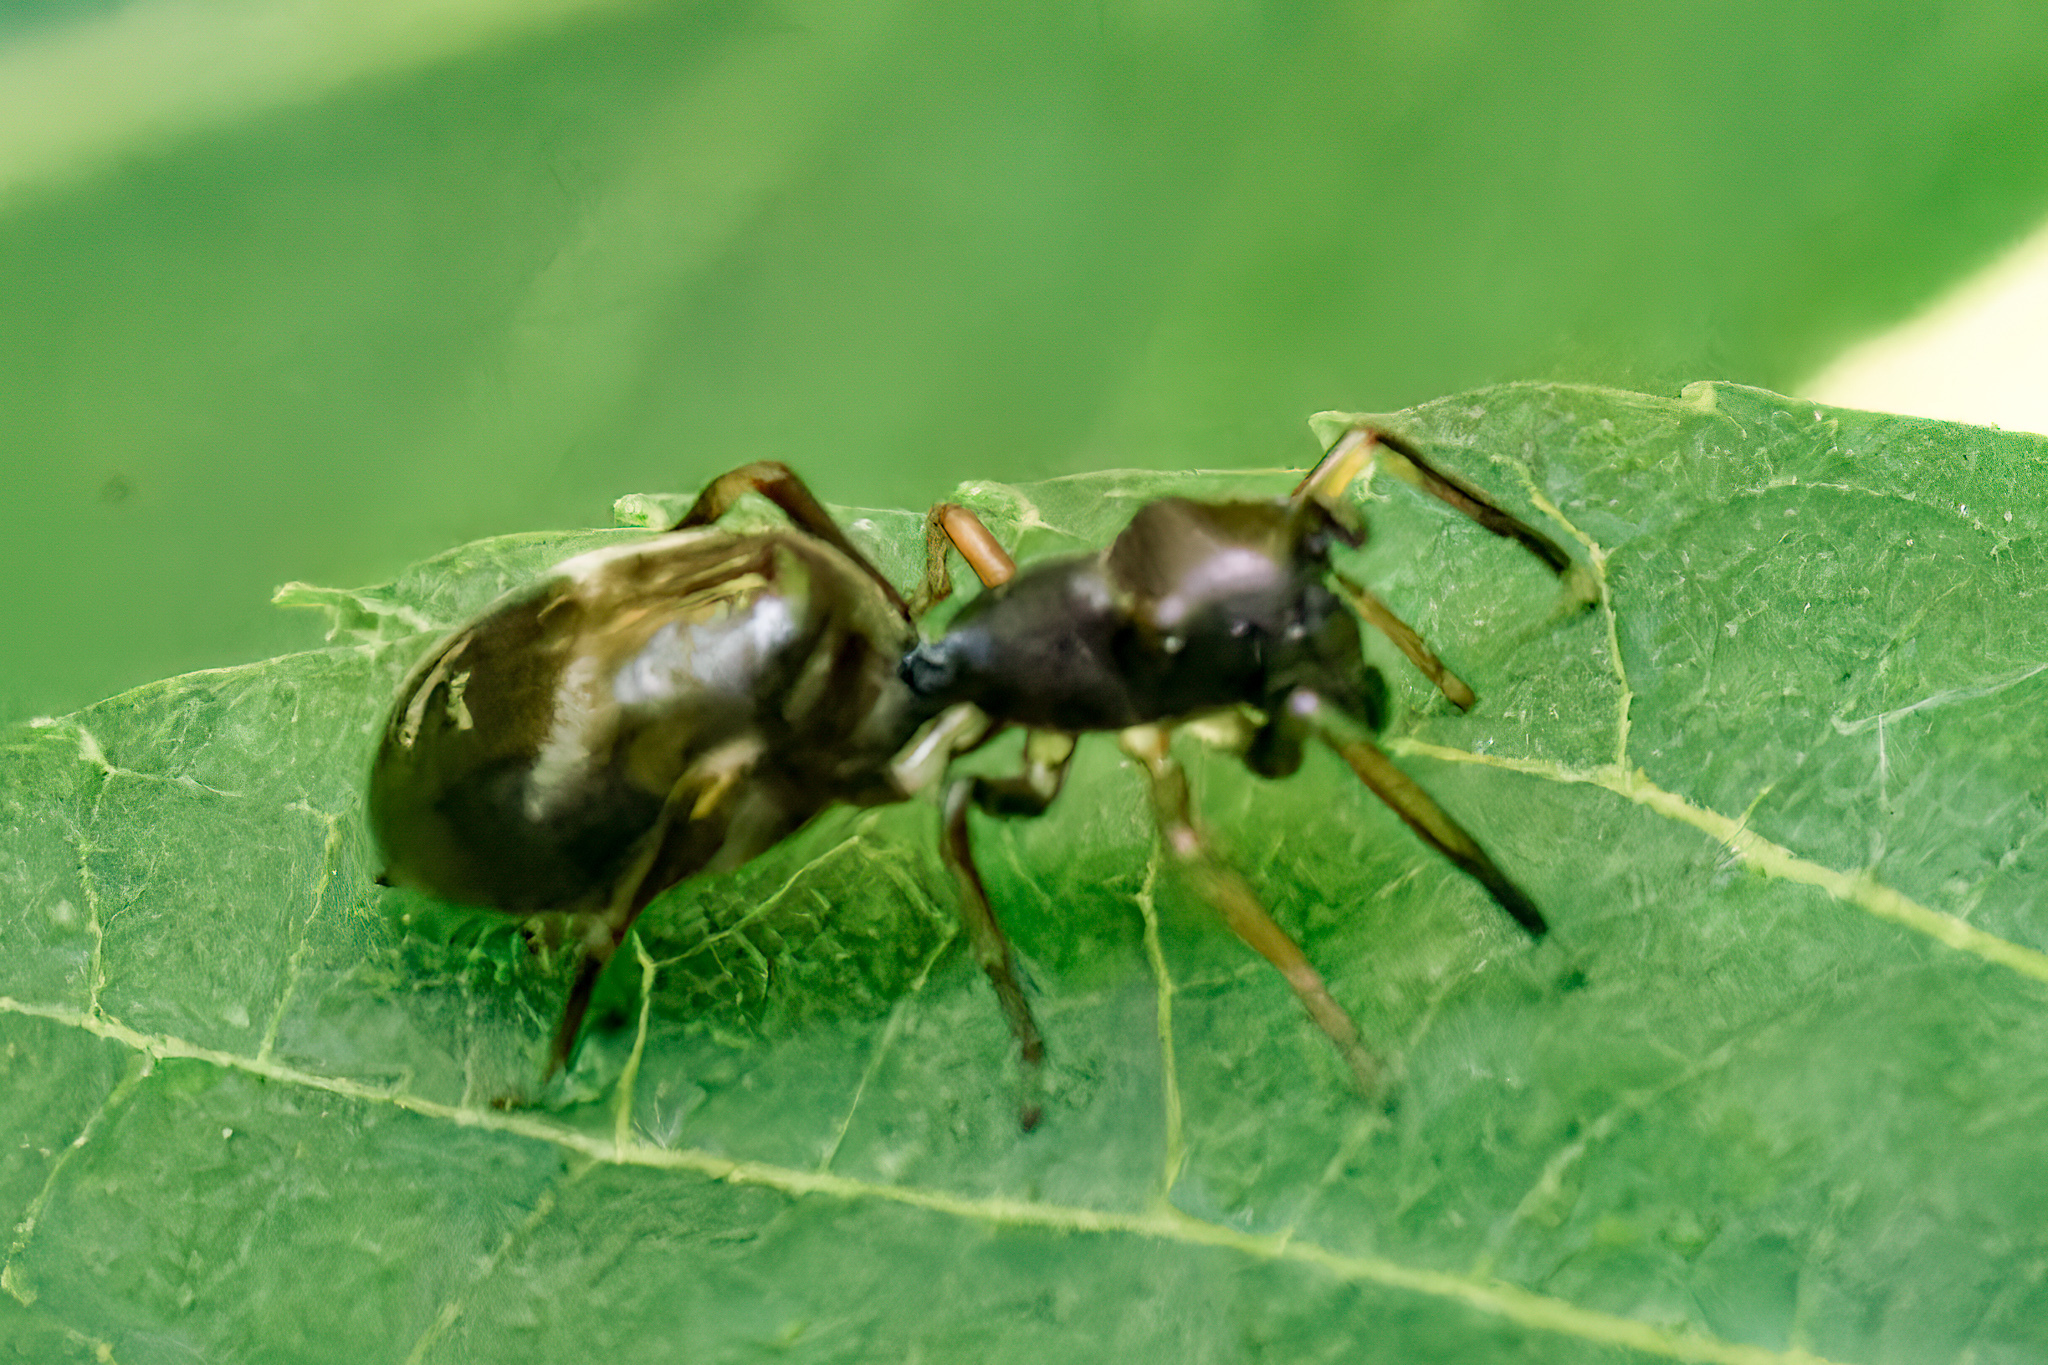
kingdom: Animalia
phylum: Arthropoda
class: Arachnida
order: Araneae
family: Salticidae
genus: Myrmarachne
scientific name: Myrmarachne formicaria
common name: Ant mimic jumping spider
